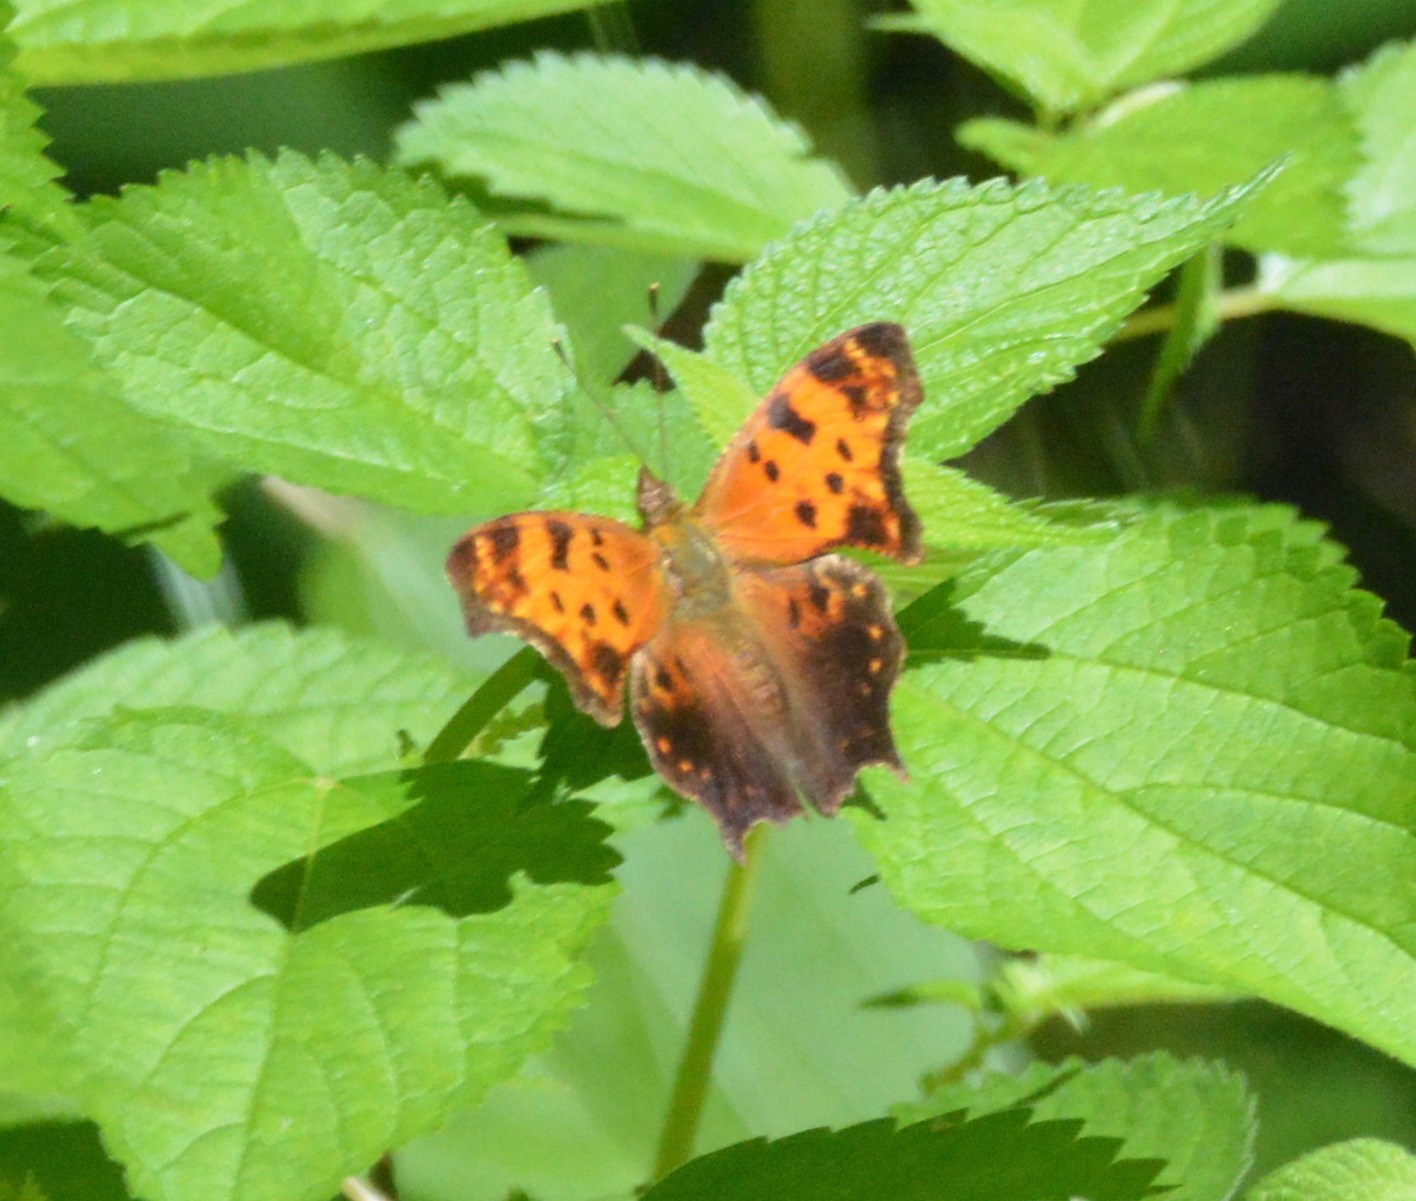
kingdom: Animalia
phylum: Arthropoda
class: Insecta
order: Lepidoptera
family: Nymphalidae
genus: Polygonia
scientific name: Polygonia comma
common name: Eastern comma
